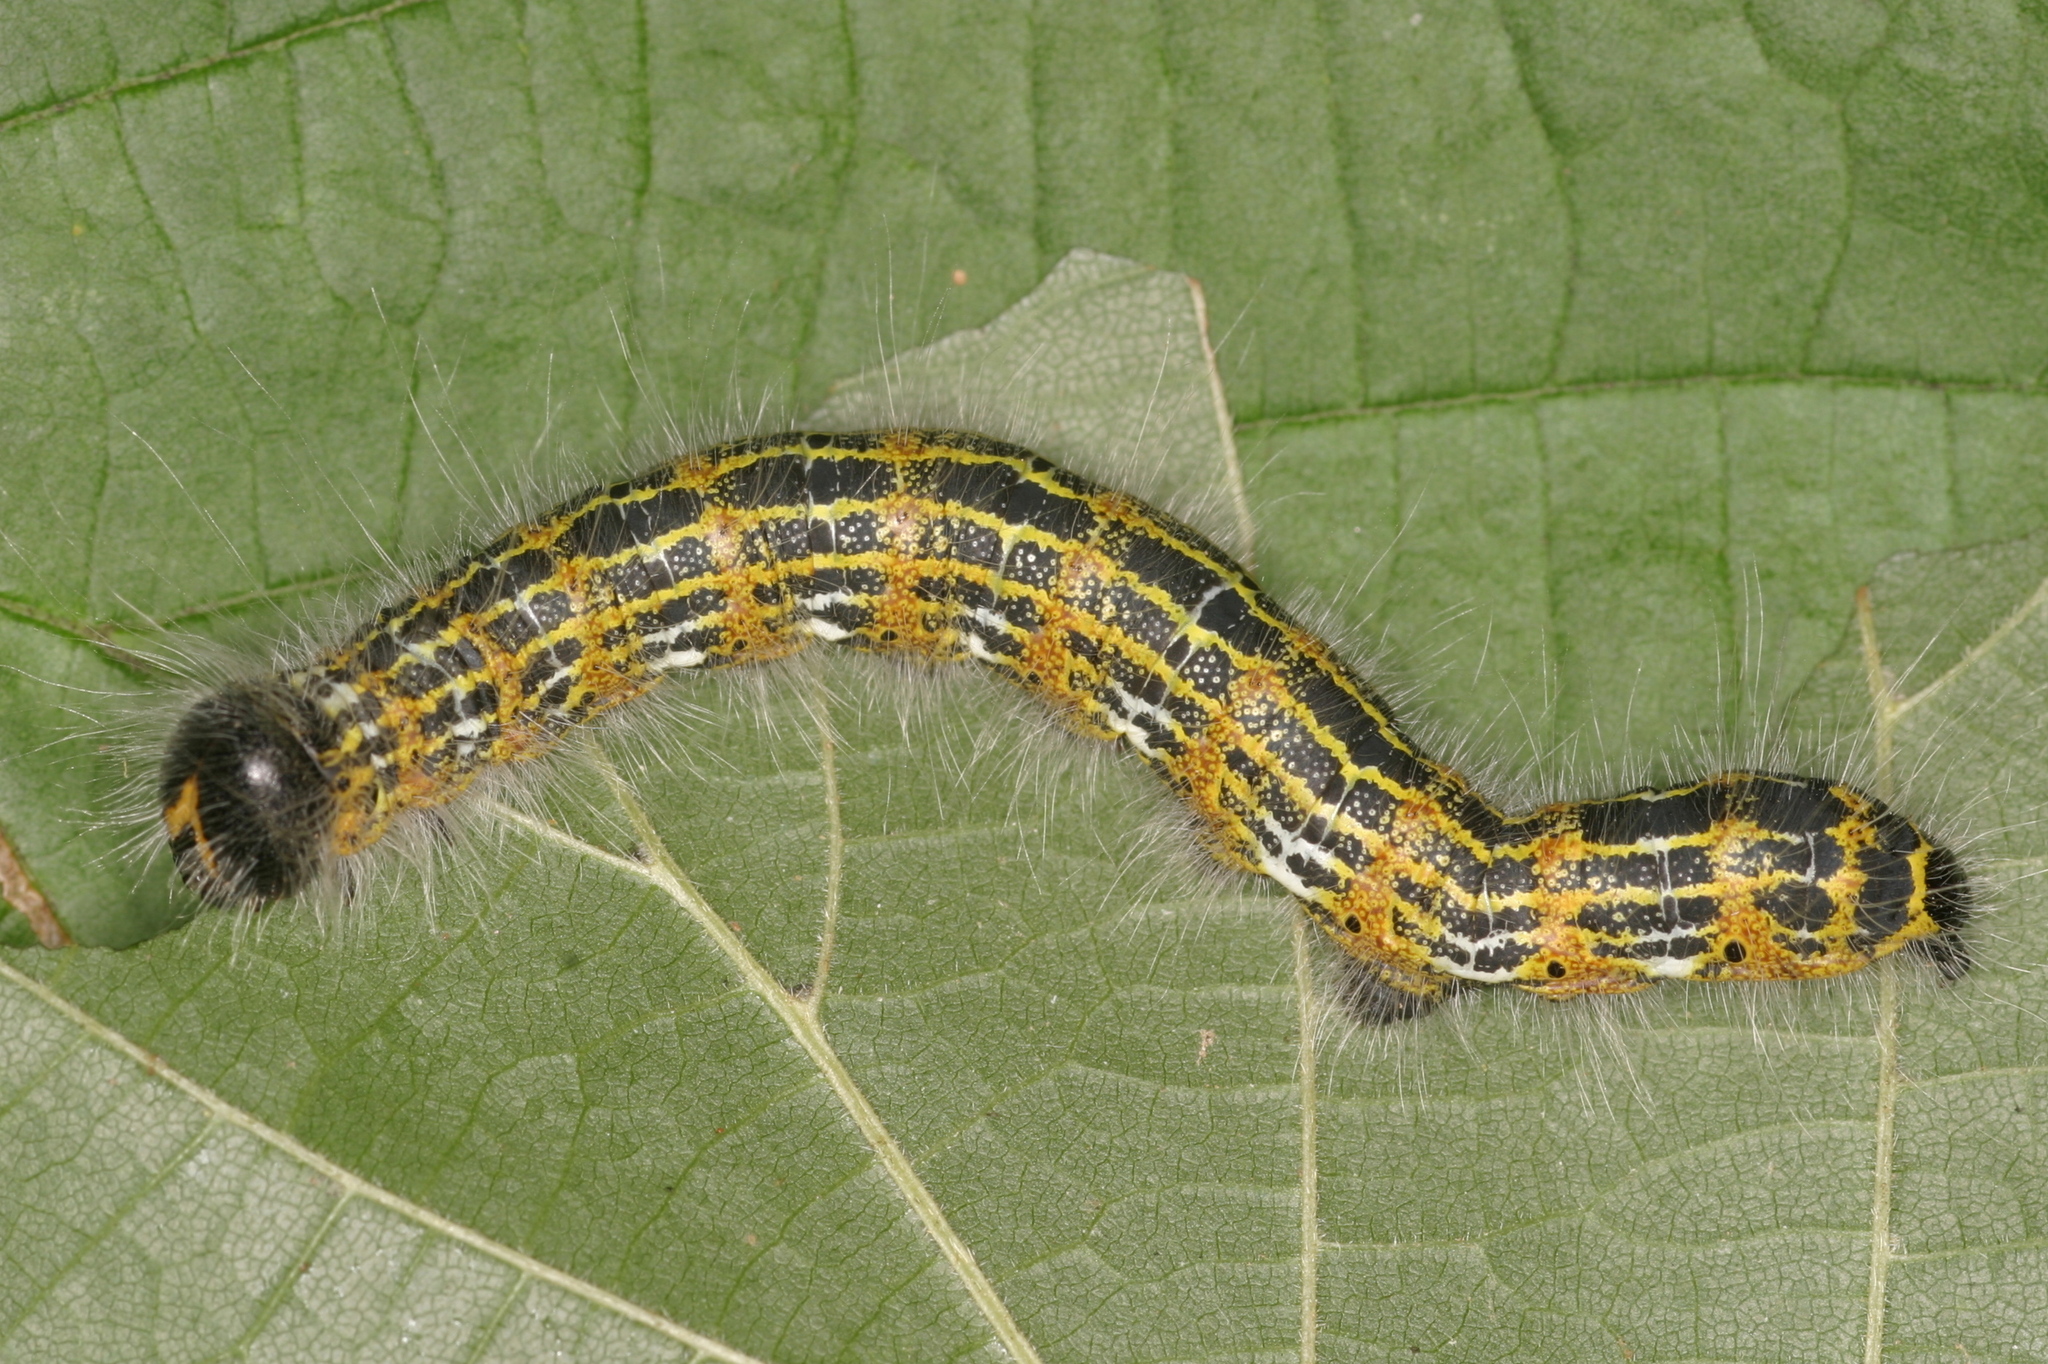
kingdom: Animalia
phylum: Arthropoda
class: Insecta
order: Lepidoptera
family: Notodontidae
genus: Phalera
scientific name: Phalera bucephala
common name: Buff-tip
